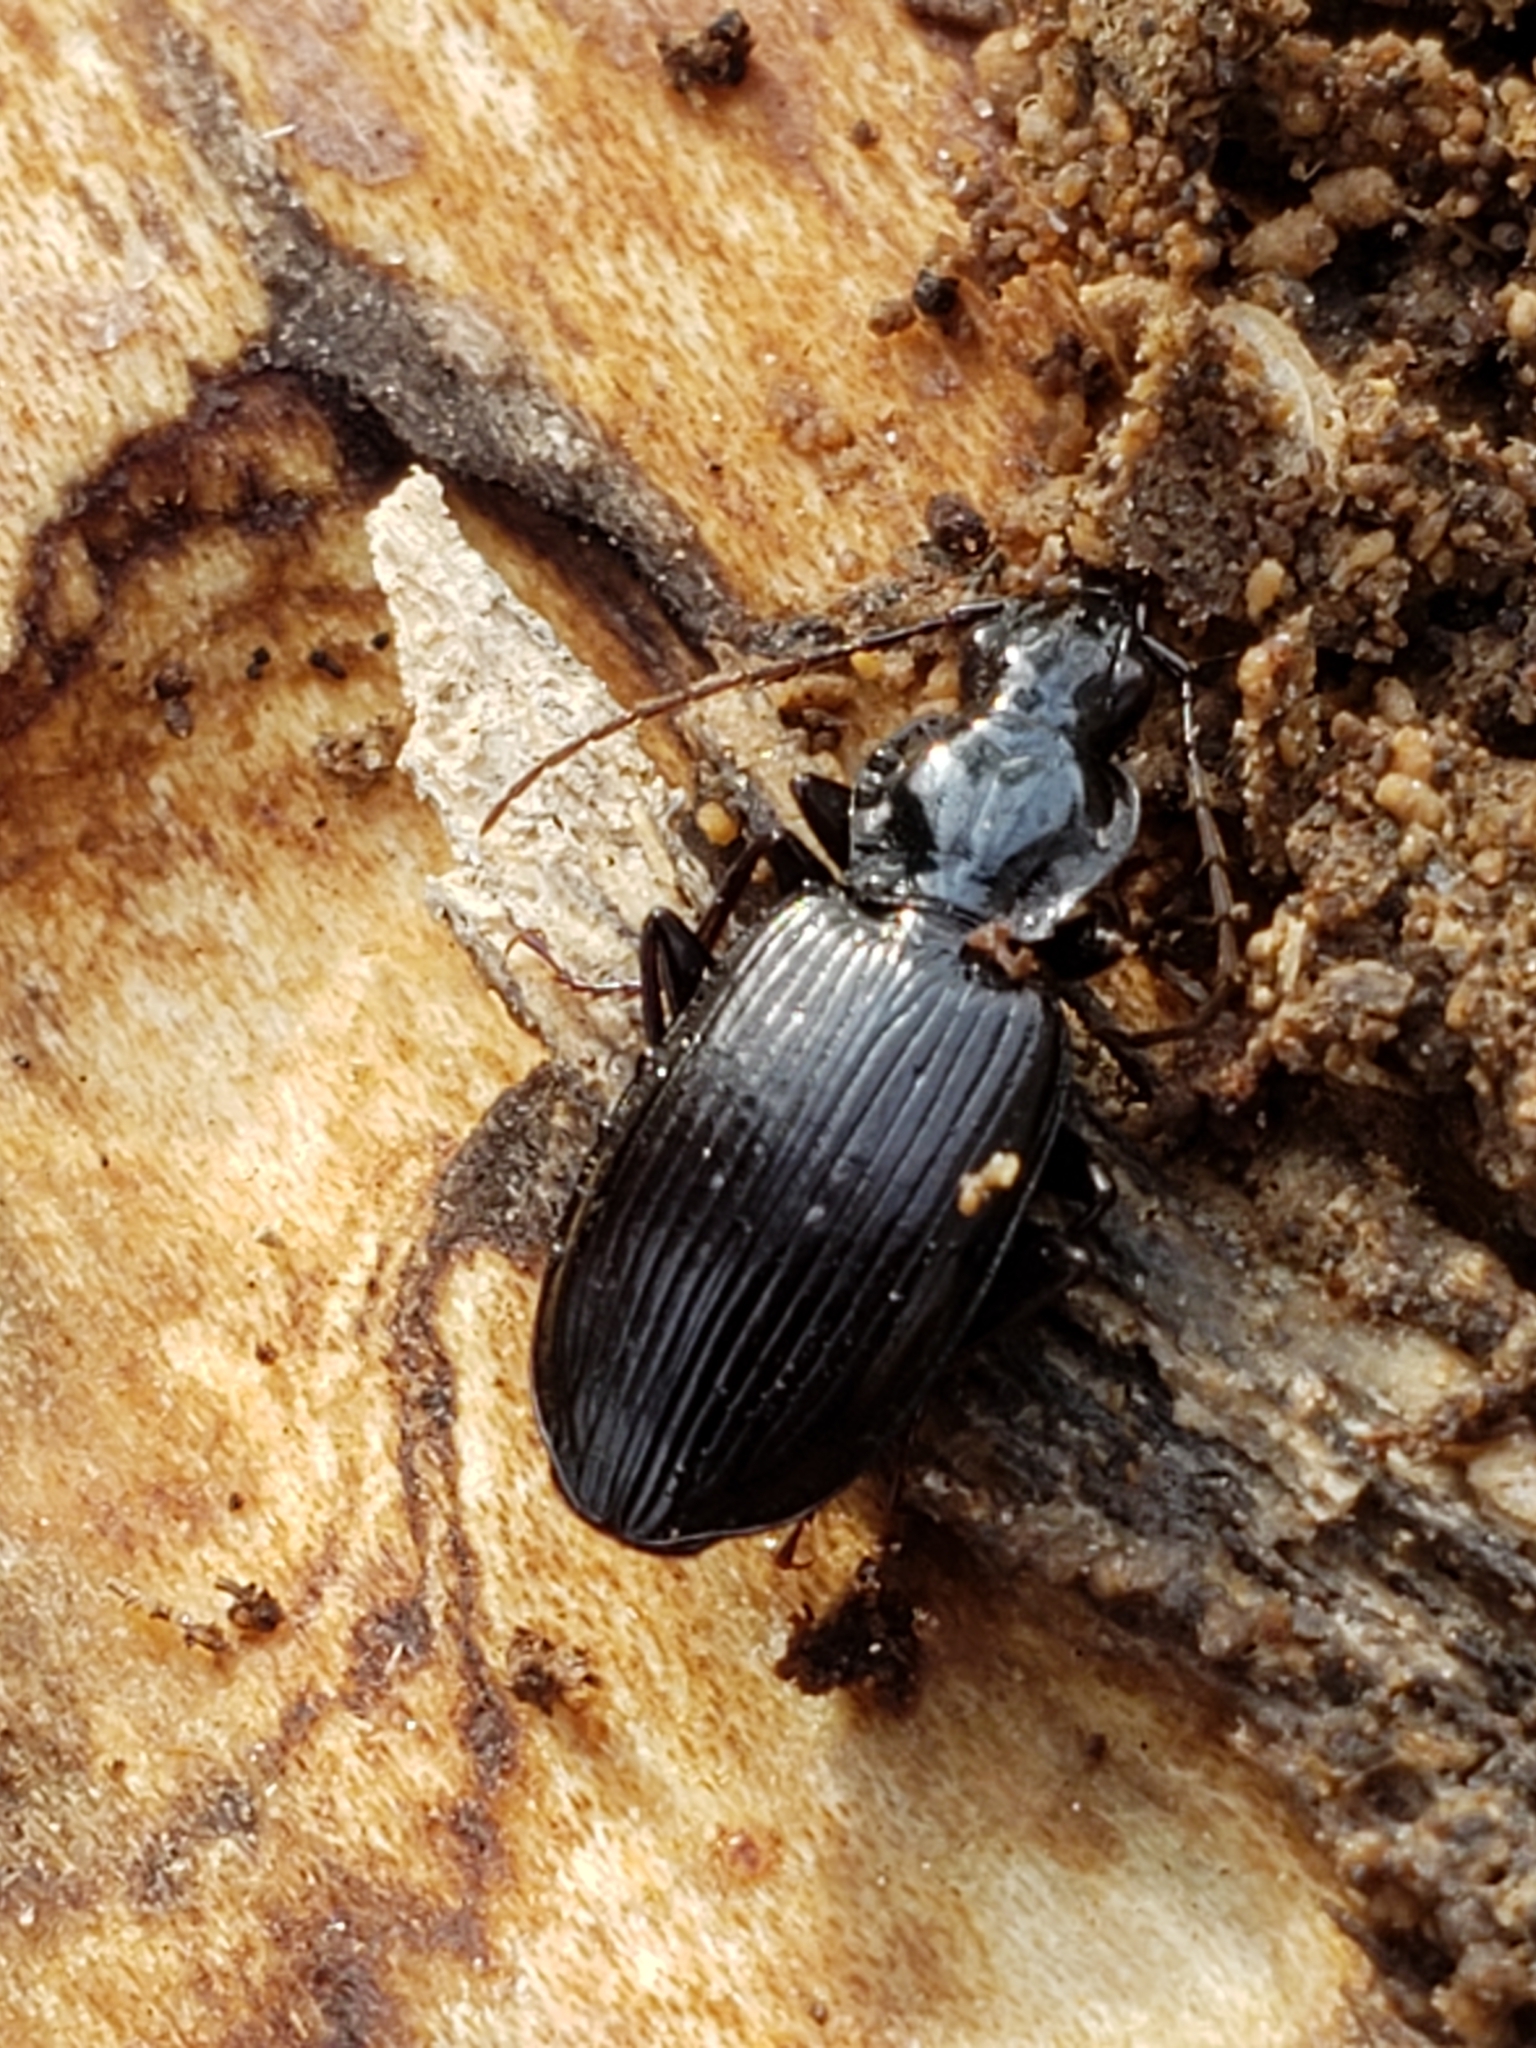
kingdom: Animalia
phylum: Arthropoda
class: Insecta
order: Coleoptera
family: Carabidae
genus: Platynus
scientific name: Platynus decentis
